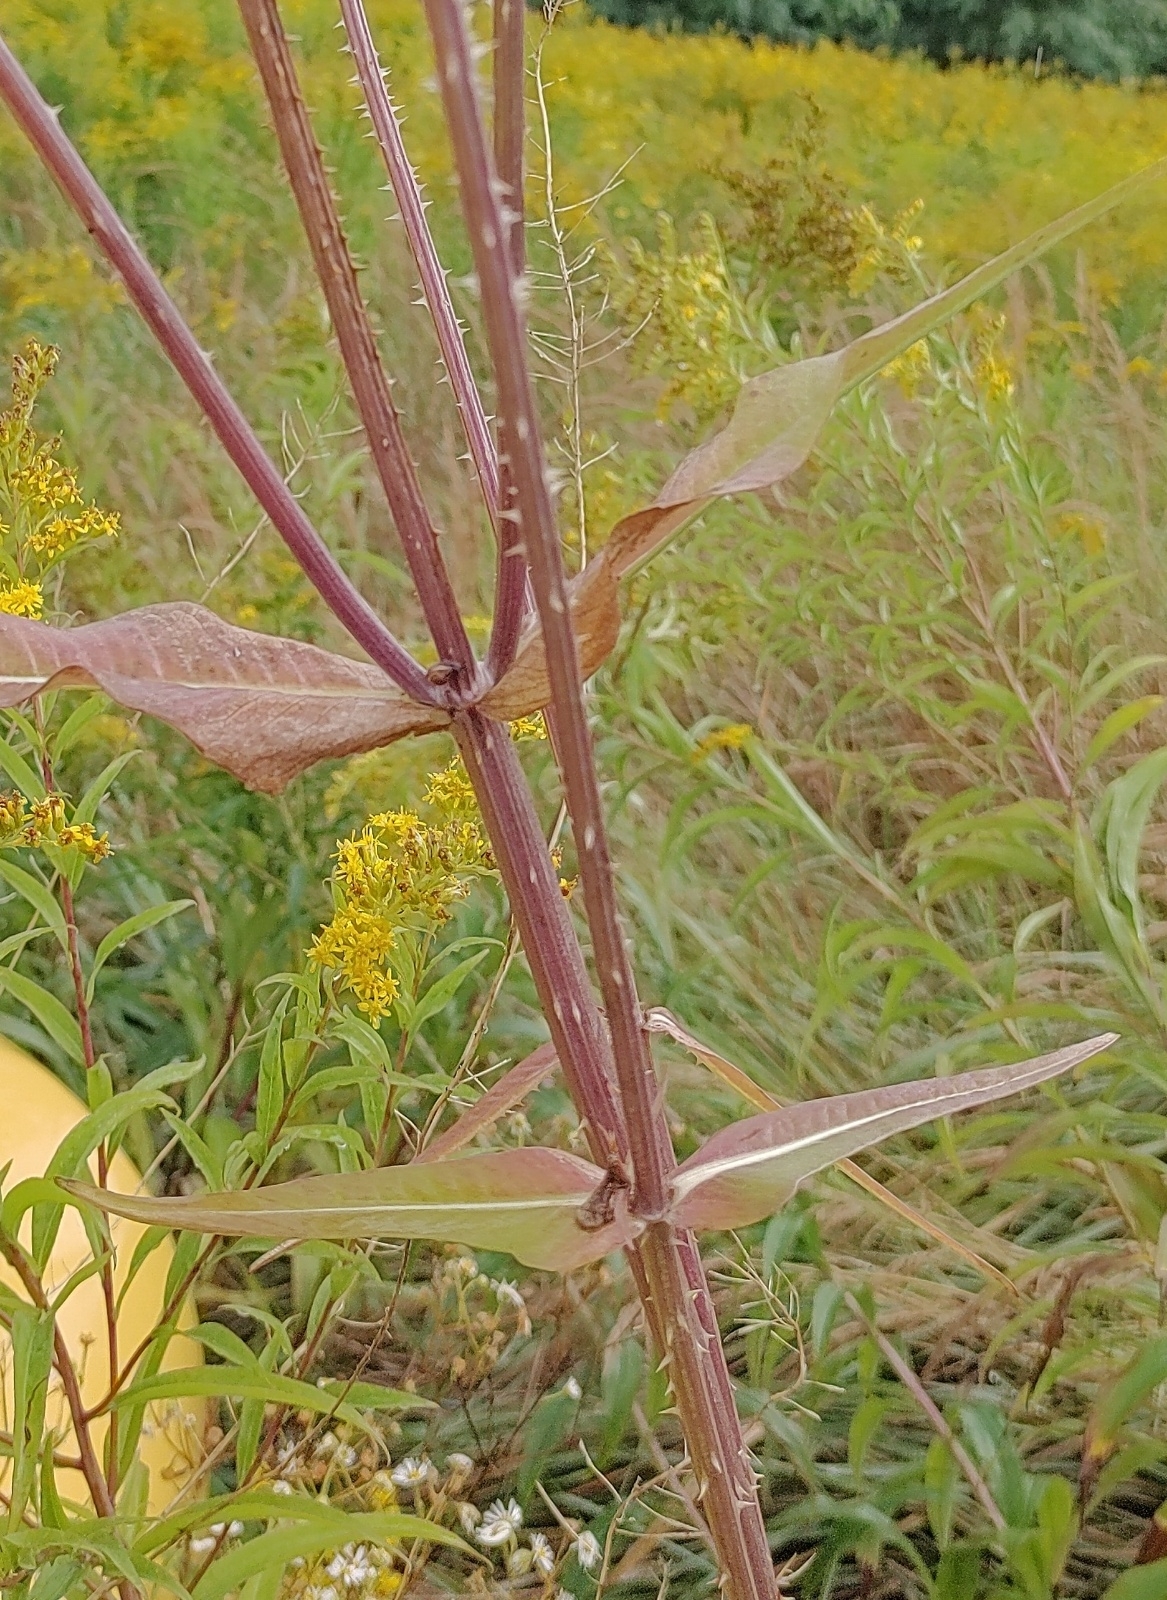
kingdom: Plantae
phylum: Tracheophyta
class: Magnoliopsida
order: Dipsacales
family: Caprifoliaceae
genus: Dipsacus
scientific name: Dipsacus fullonum
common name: Teasel
